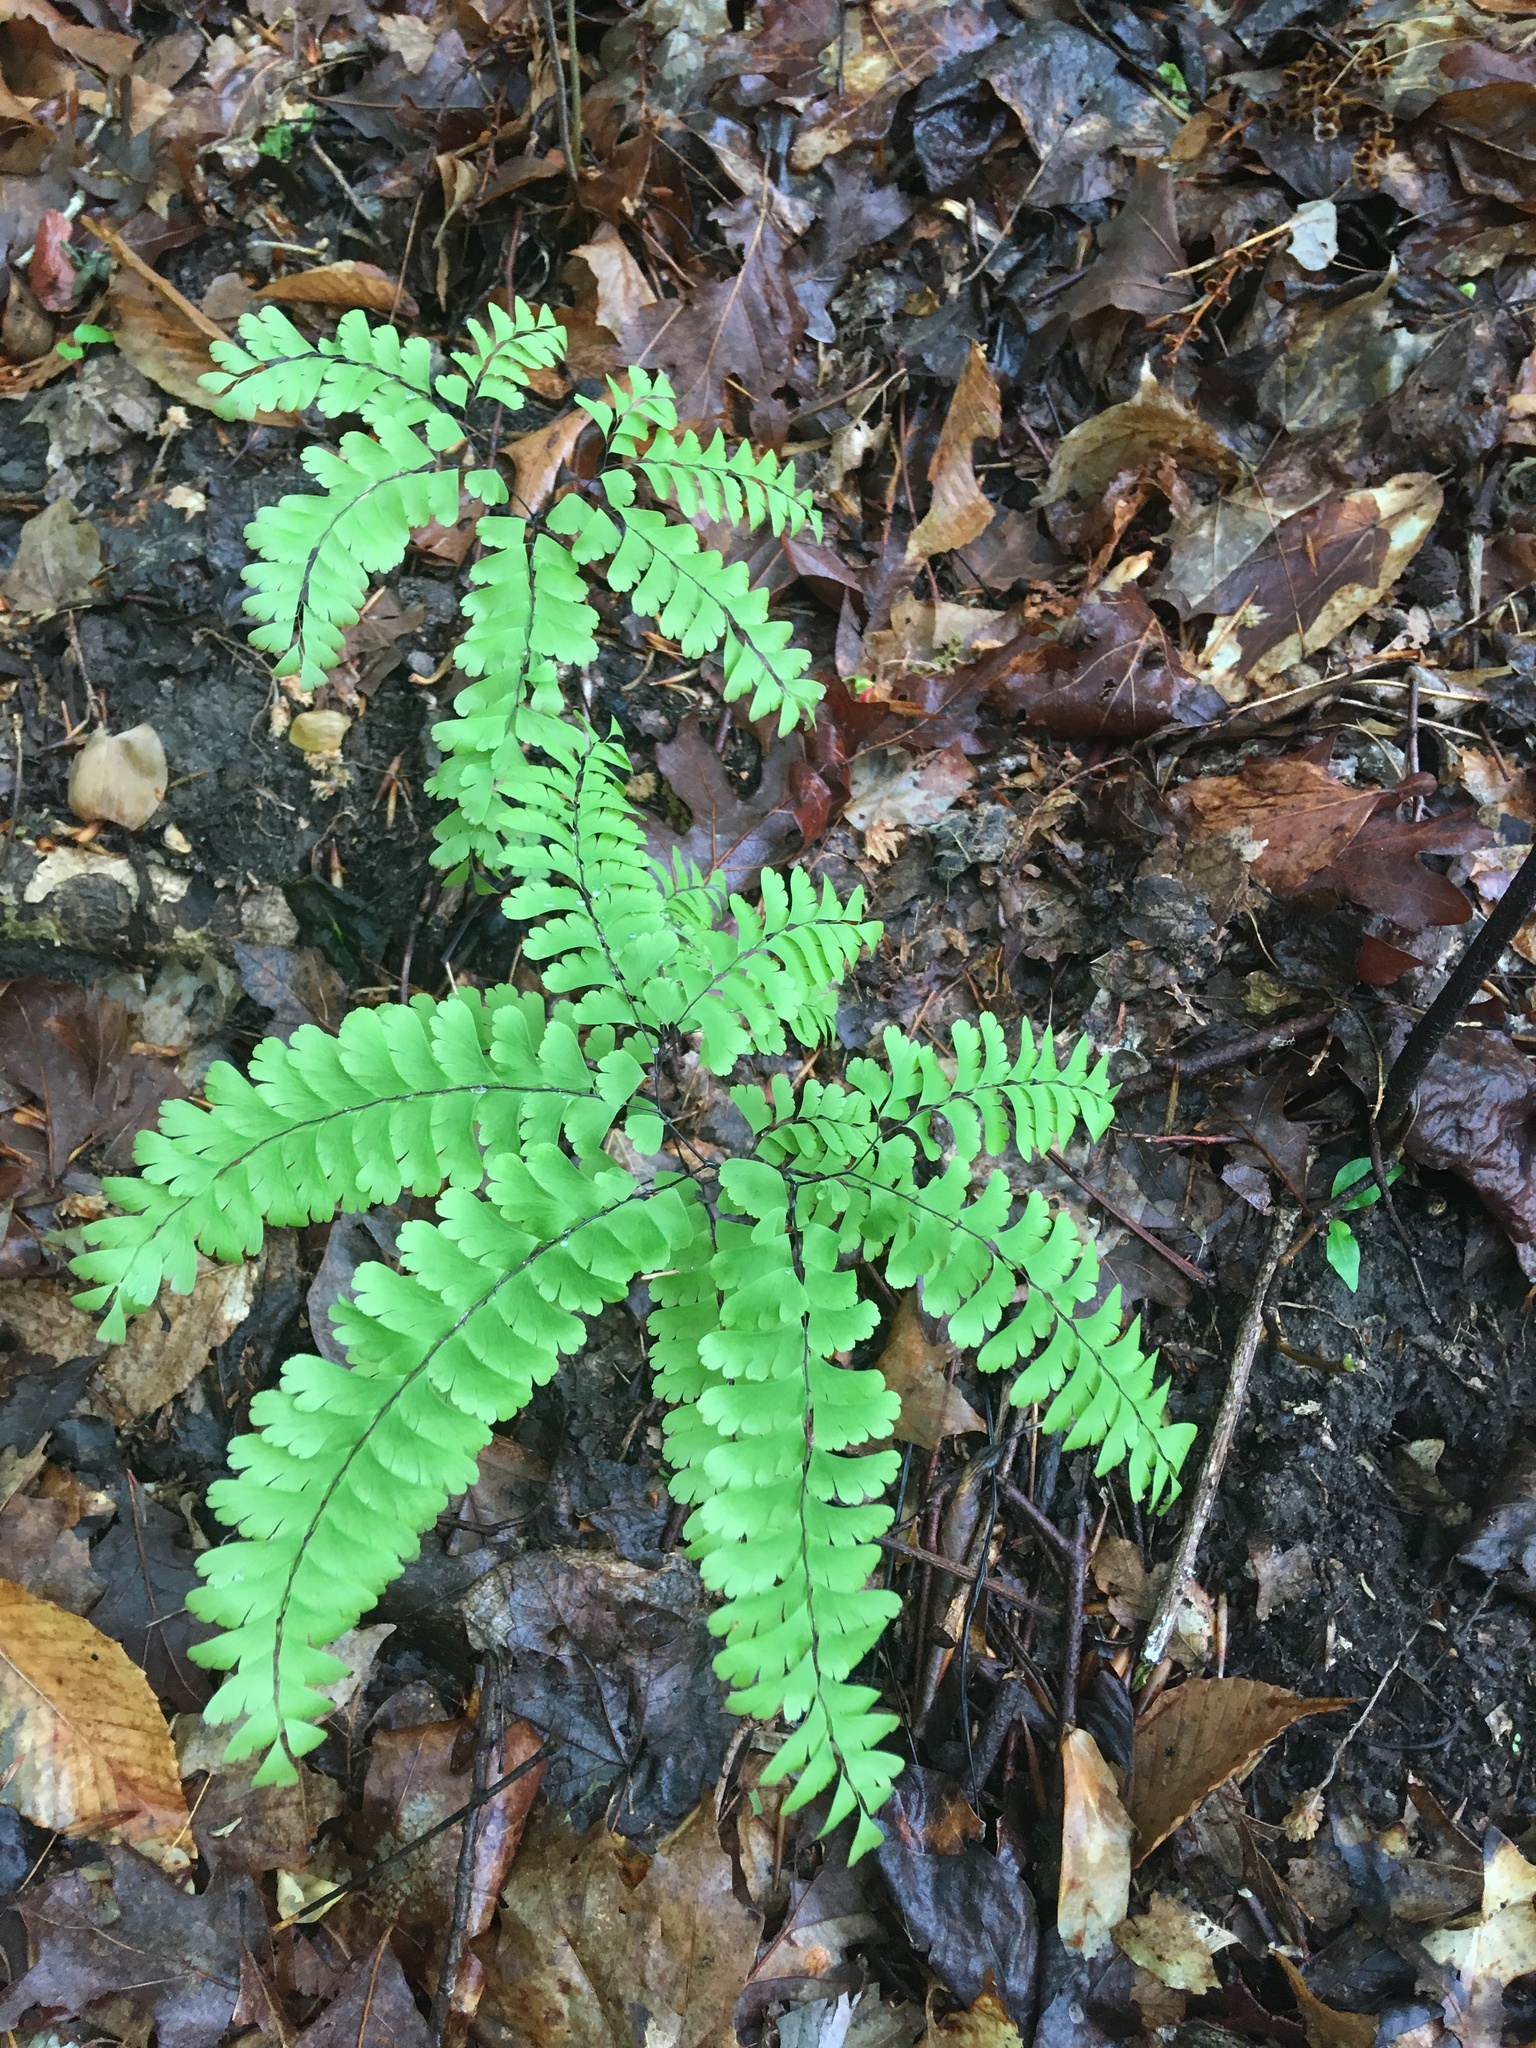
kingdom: Plantae
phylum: Tracheophyta
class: Polypodiopsida
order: Polypodiales
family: Pteridaceae
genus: Adiantum
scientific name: Adiantum pedatum
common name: Five-finger fern
